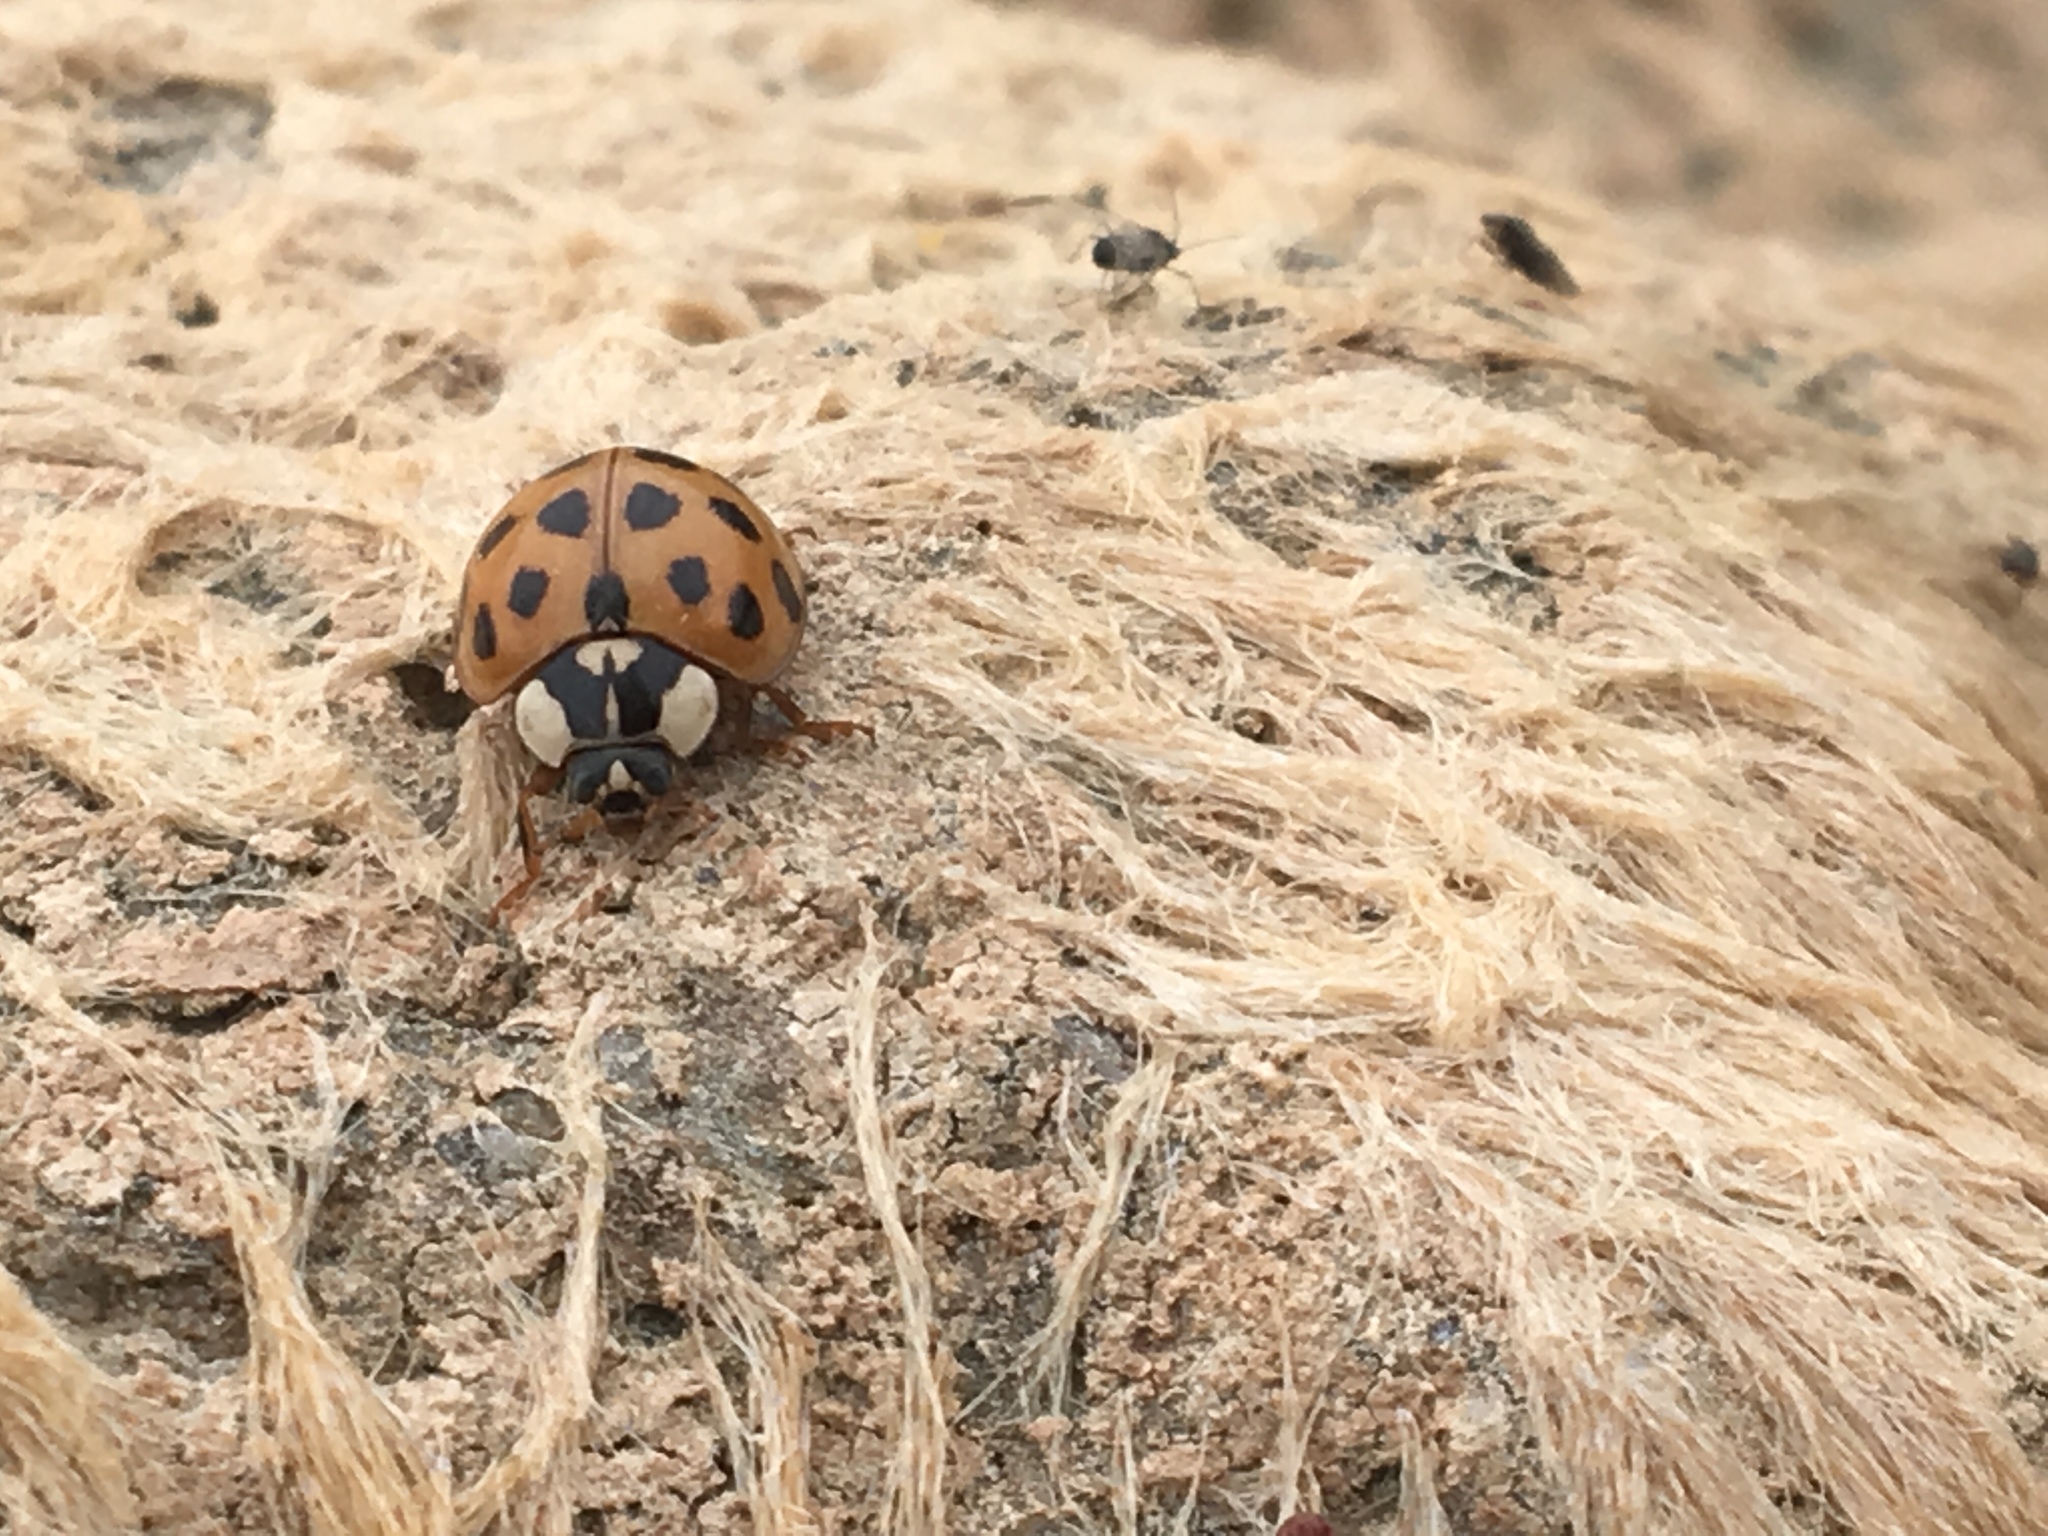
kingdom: Animalia
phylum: Arthropoda
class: Insecta
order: Coleoptera
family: Coccinellidae
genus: Harmonia
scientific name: Harmonia axyridis
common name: Harlequin ladybird
